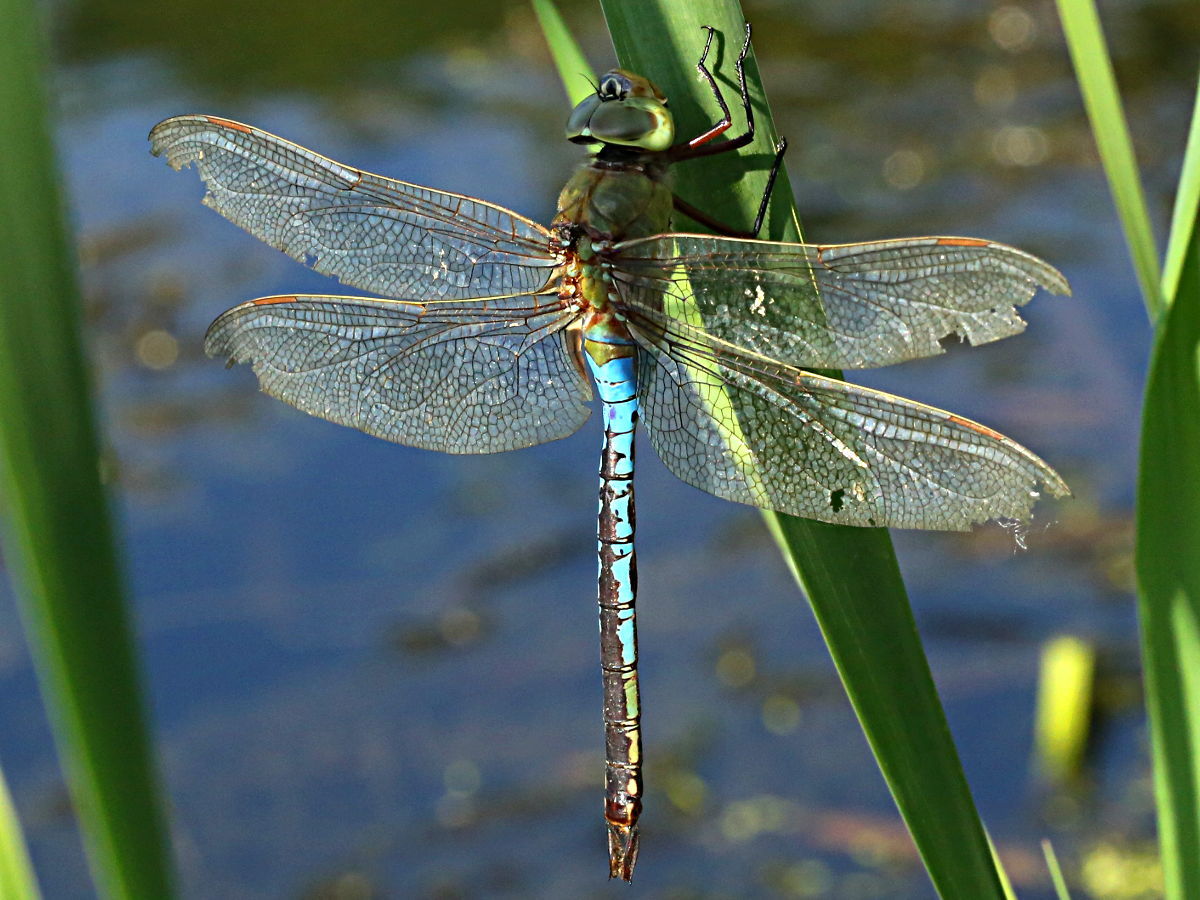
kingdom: Animalia
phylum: Arthropoda
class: Insecta
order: Odonata
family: Aeshnidae
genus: Anax
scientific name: Anax junius
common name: Common green darner
